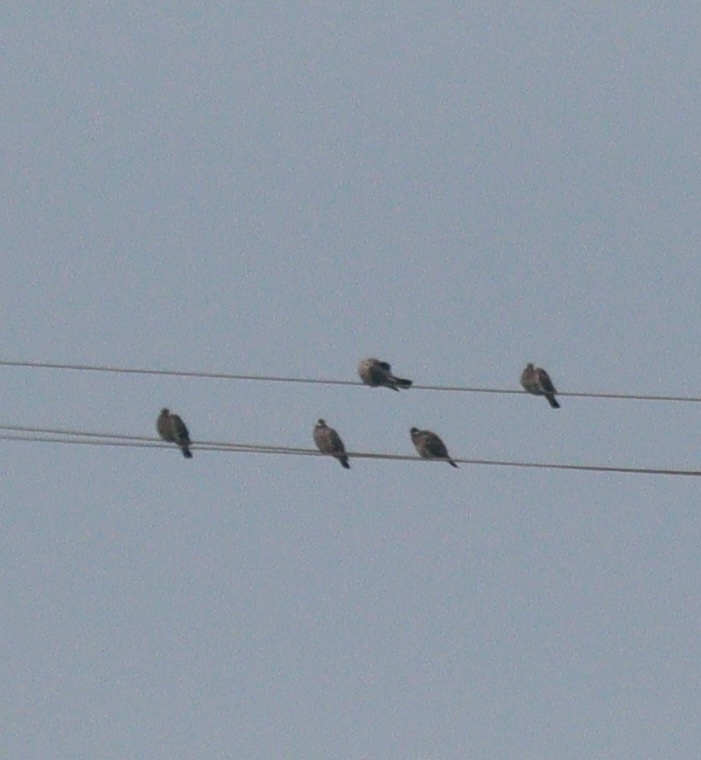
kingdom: Animalia
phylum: Chordata
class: Aves
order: Columbiformes
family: Columbidae
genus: Columba
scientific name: Columba palumbus
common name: Common wood pigeon
